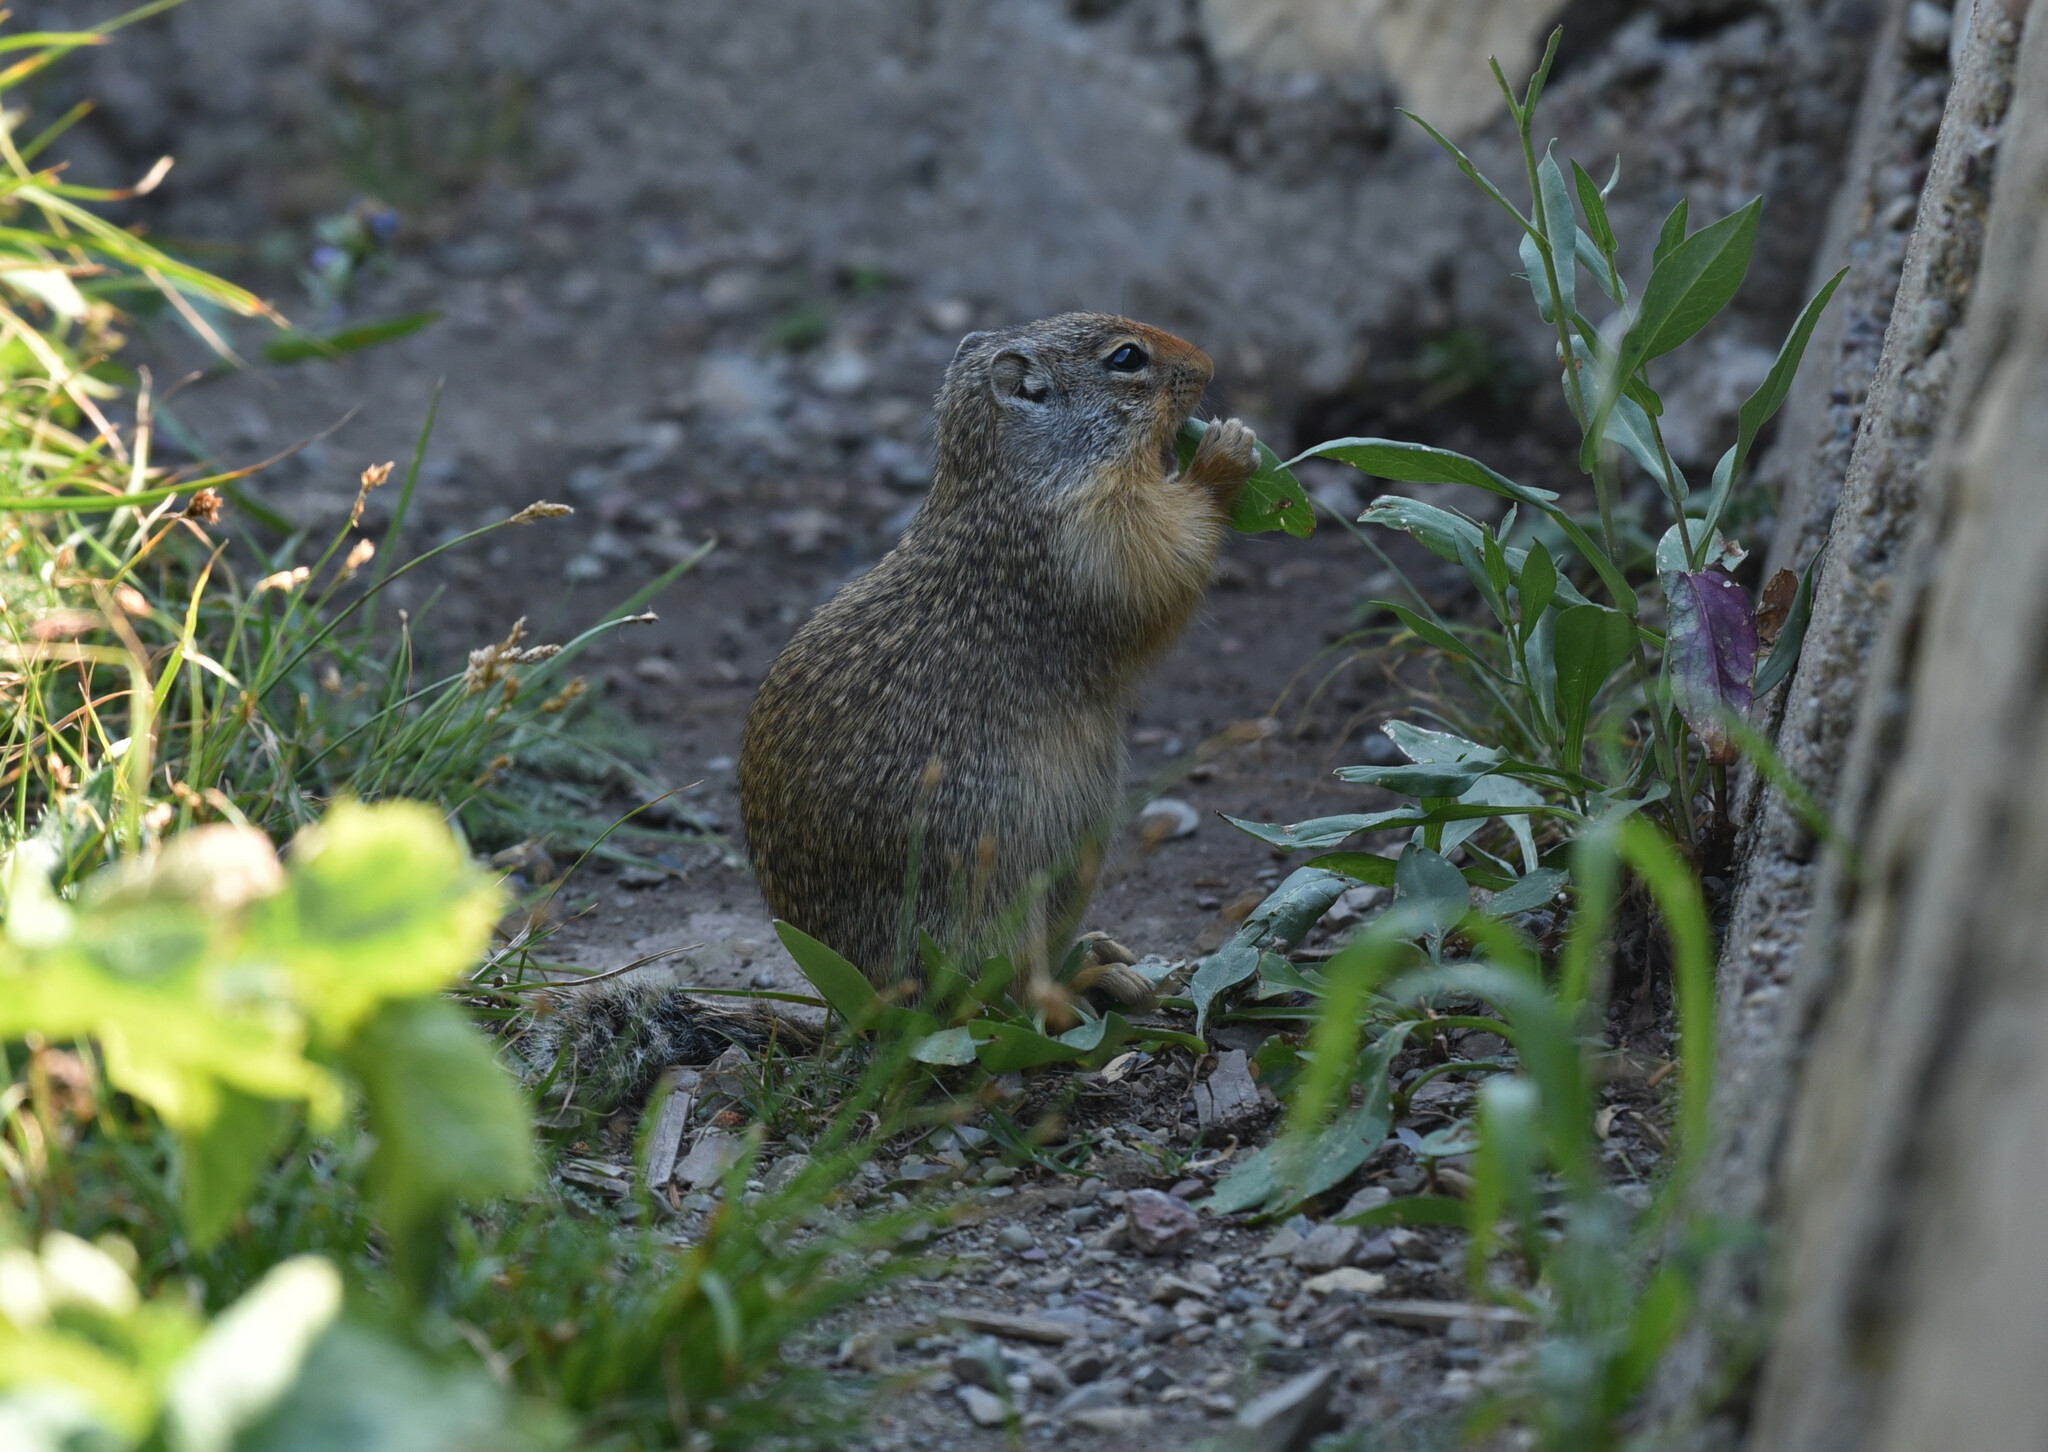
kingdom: Animalia
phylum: Chordata
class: Mammalia
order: Rodentia
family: Sciuridae
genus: Urocitellus
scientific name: Urocitellus columbianus
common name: Columbian ground squirrel
